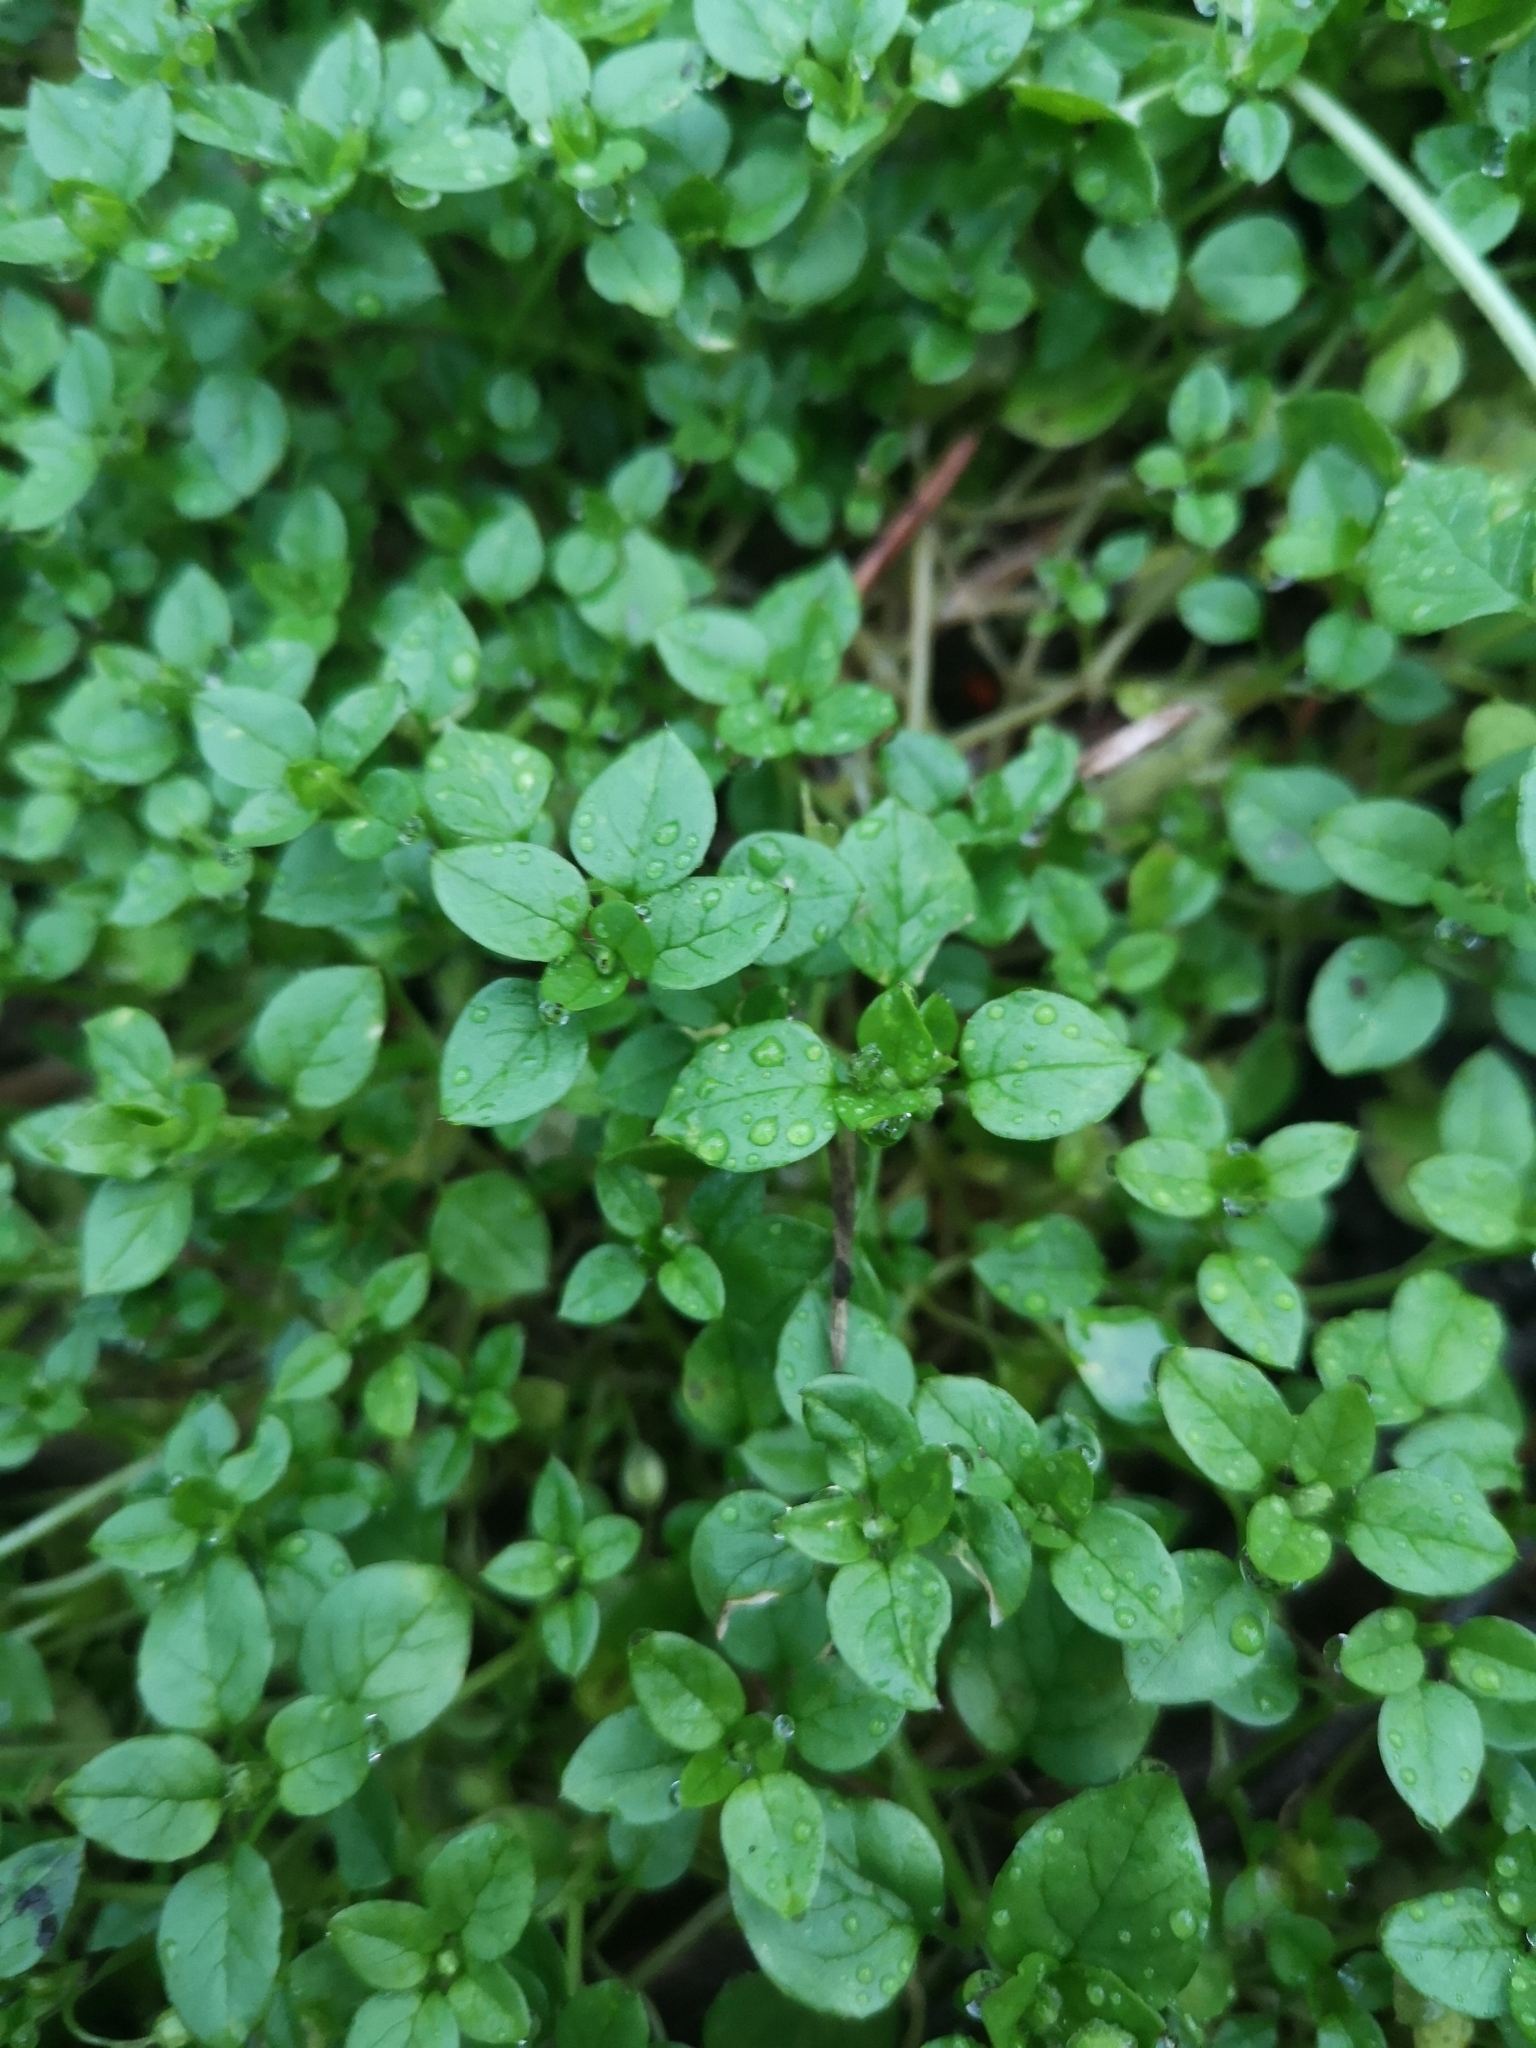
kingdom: Plantae
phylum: Tracheophyta
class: Magnoliopsida
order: Caryophyllales
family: Caryophyllaceae
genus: Stellaria
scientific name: Stellaria media
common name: Common chickweed
